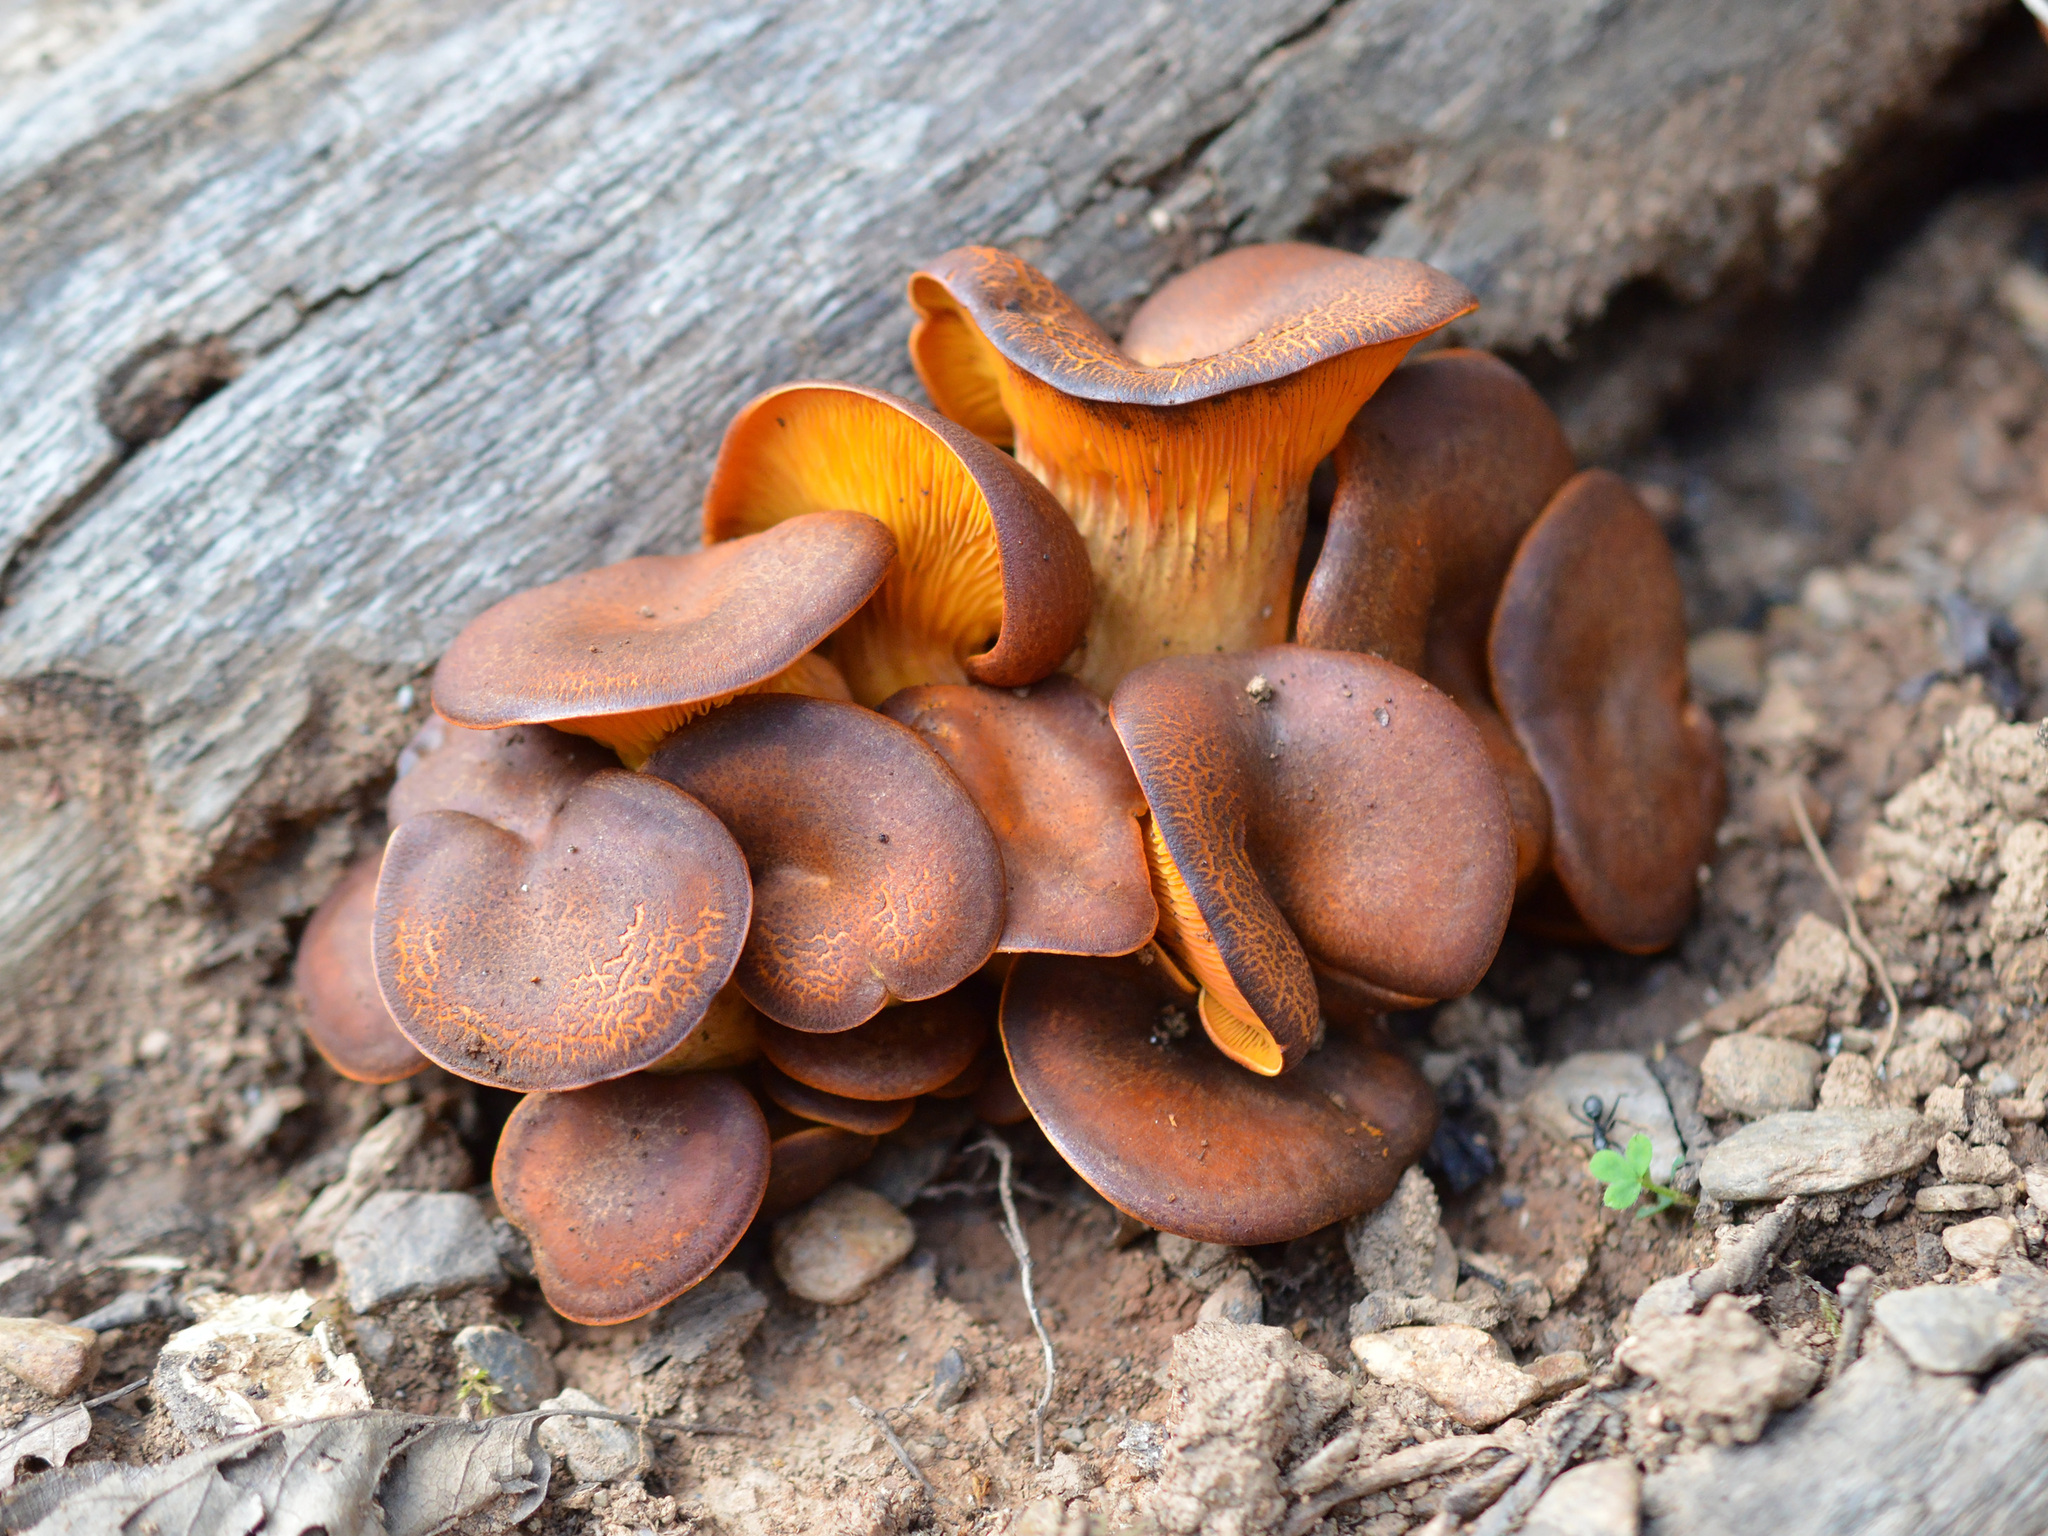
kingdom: Fungi
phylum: Basidiomycota
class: Agaricomycetes
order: Agaricales
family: Omphalotaceae
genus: Omphalotus
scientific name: Omphalotus olearius
